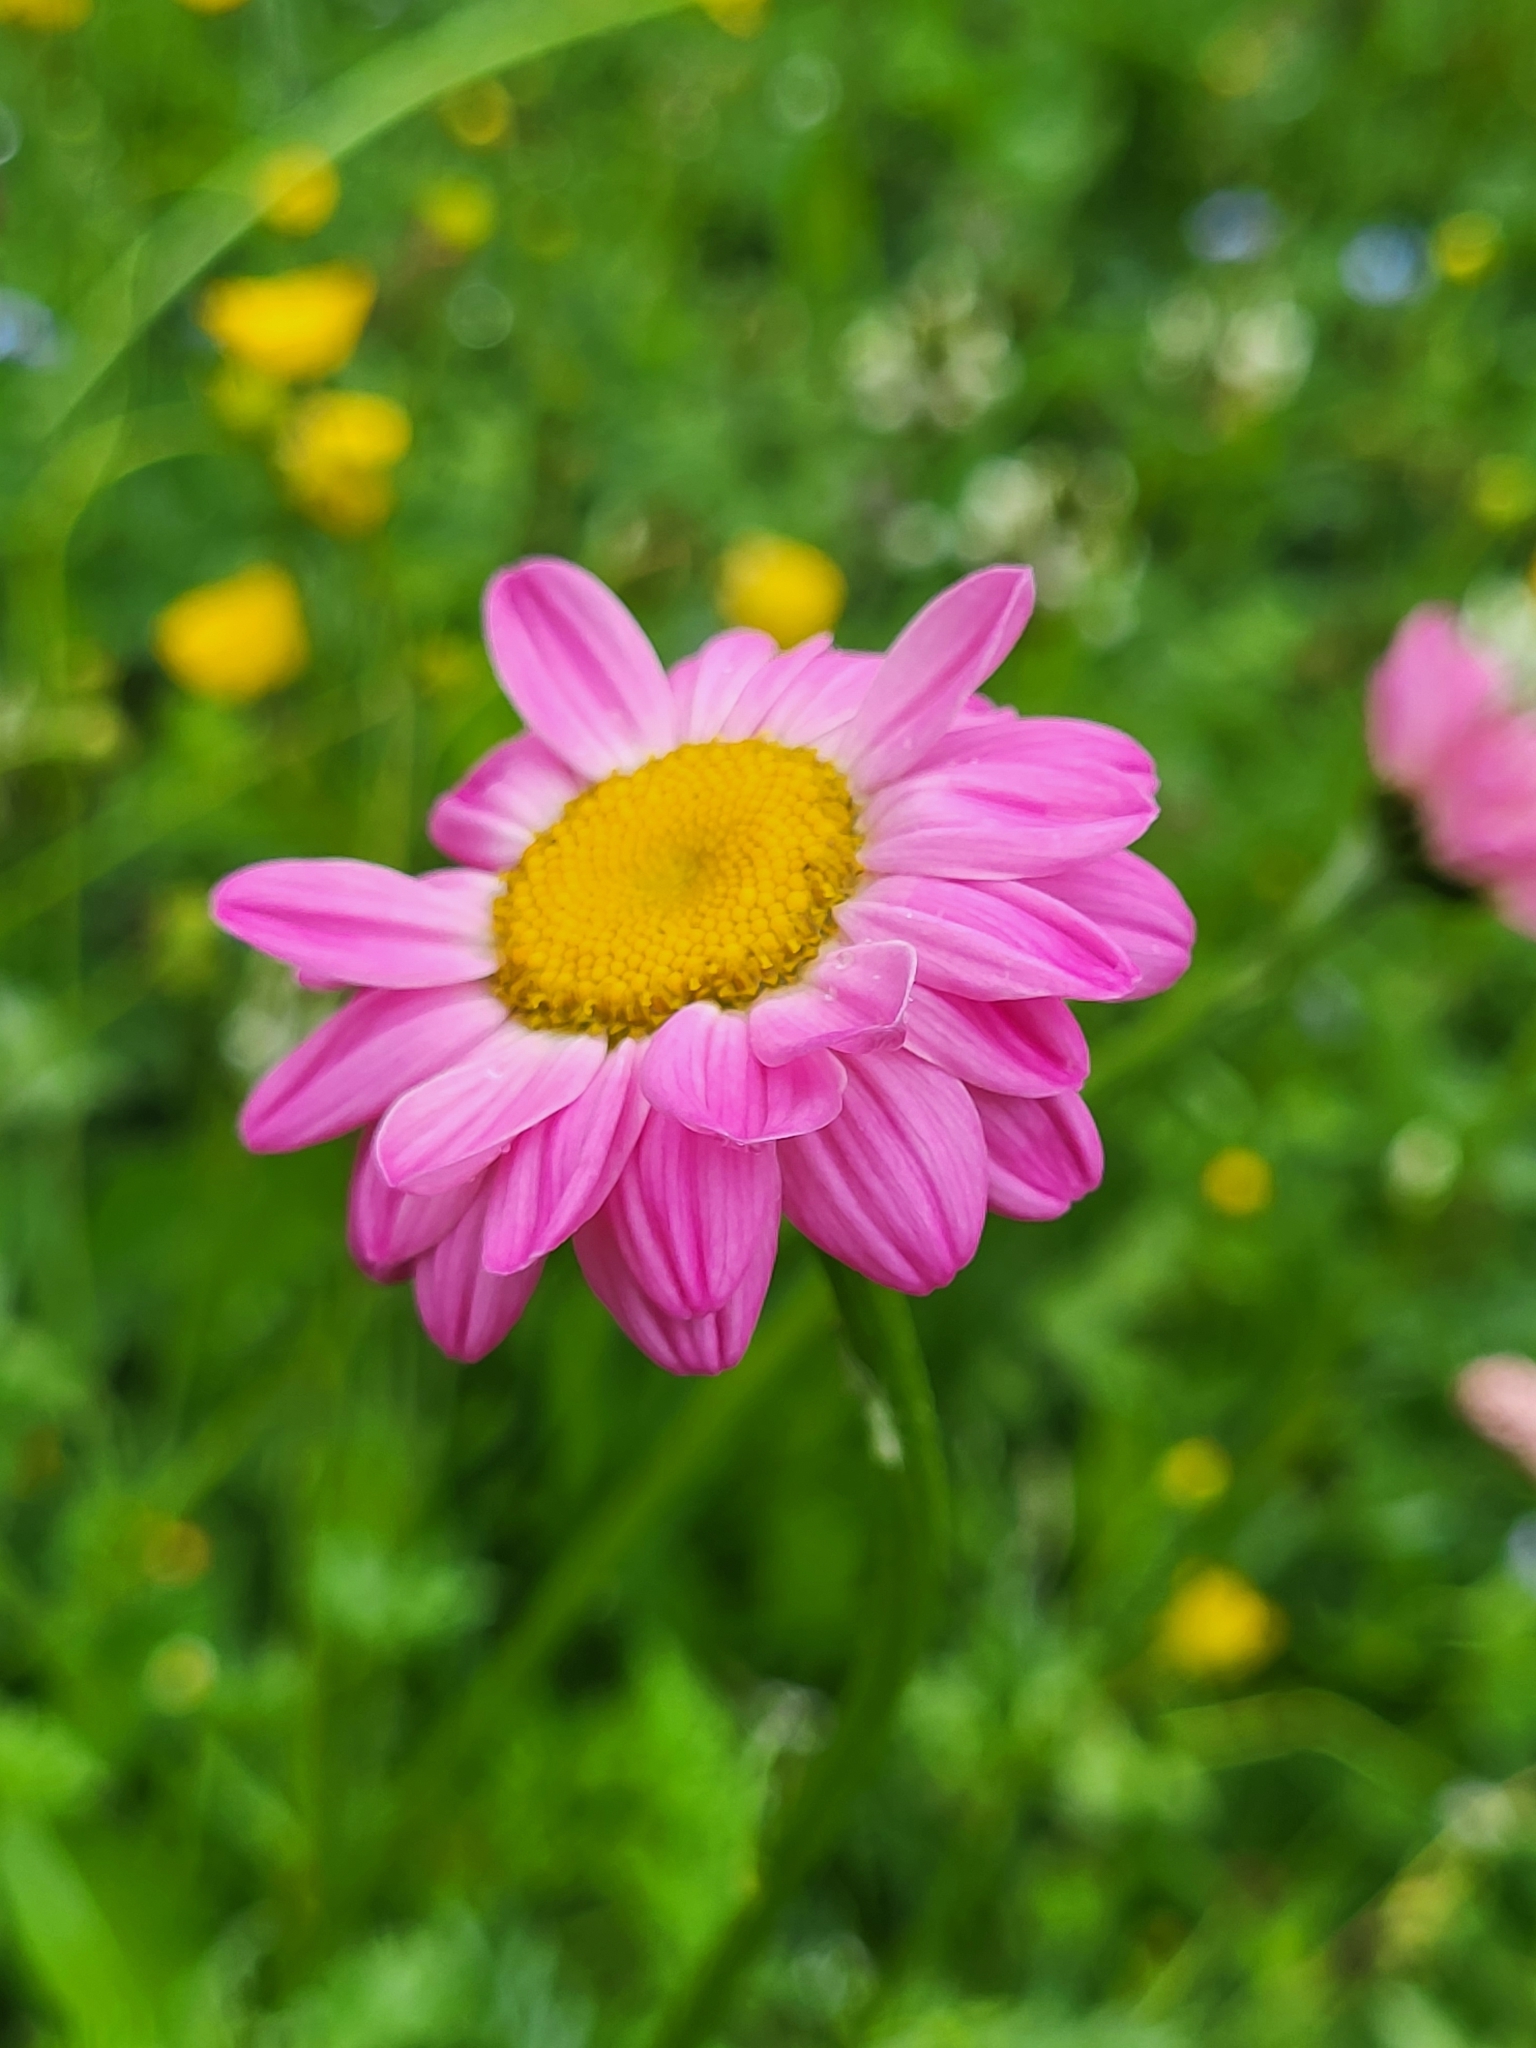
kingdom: Plantae
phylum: Tracheophyta
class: Magnoliopsida
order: Asterales
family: Asteraceae
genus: Tanacetum
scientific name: Tanacetum coccineum
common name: Pyrethum daisy
